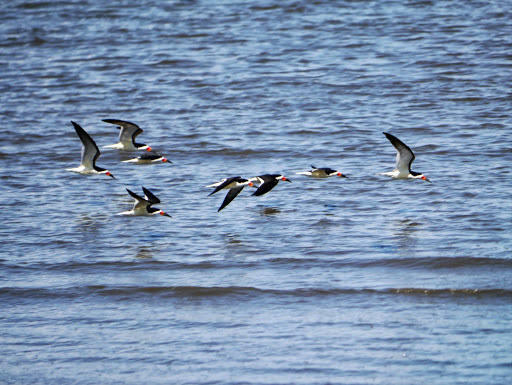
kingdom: Animalia
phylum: Chordata
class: Aves
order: Charadriiformes
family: Laridae
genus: Rynchops
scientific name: Rynchops niger
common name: Black skimmer
